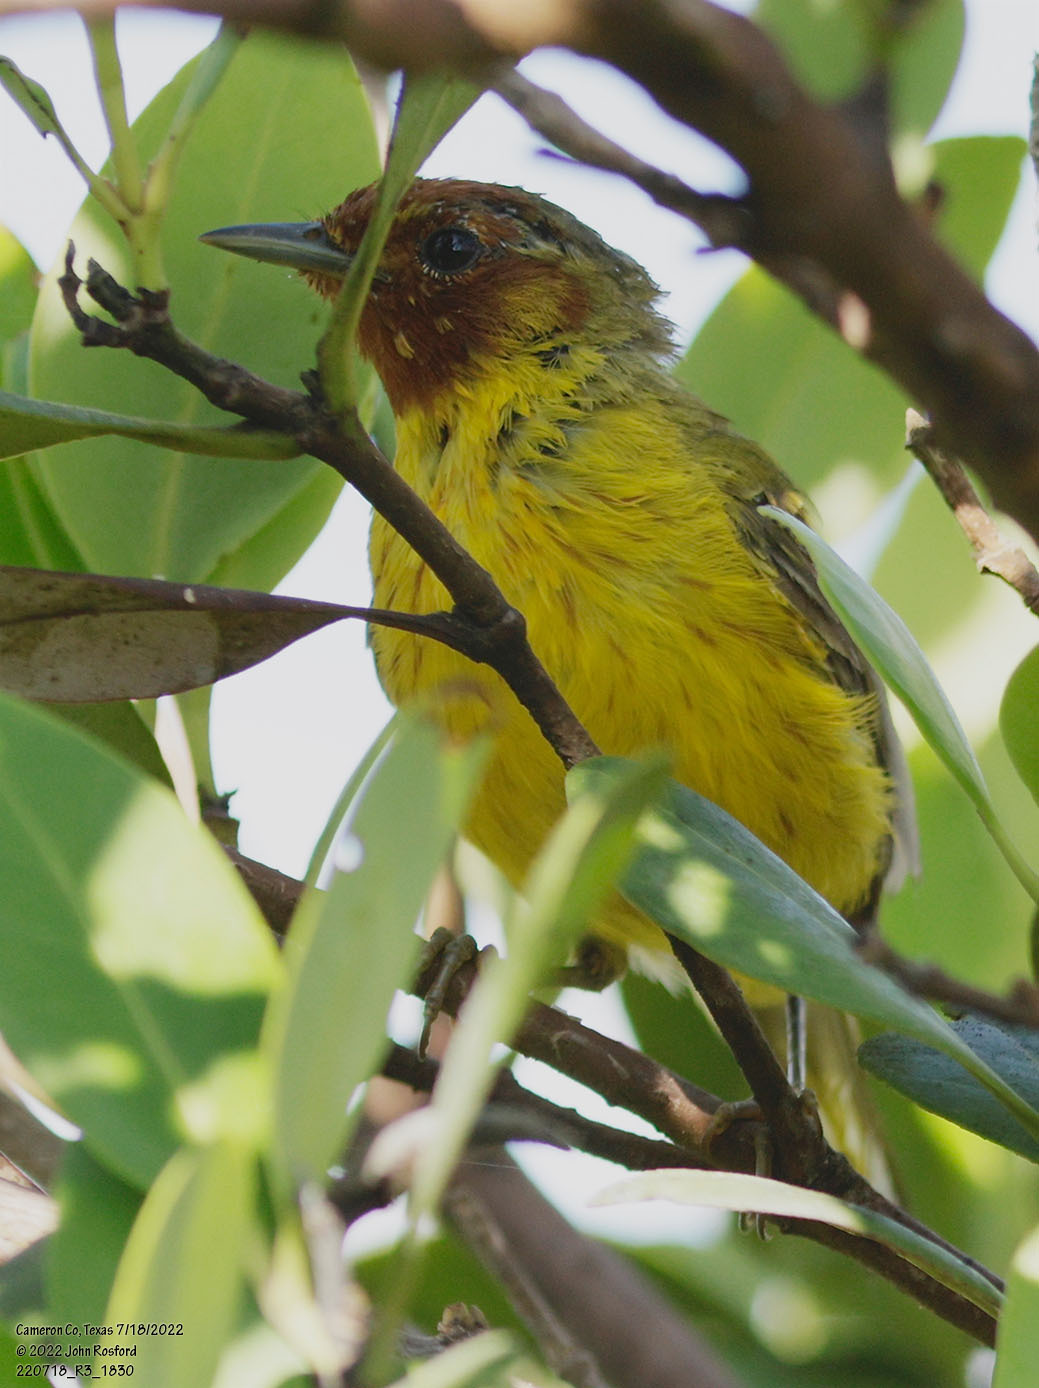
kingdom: Animalia
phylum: Chordata
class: Aves
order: Passeriformes
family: Parulidae
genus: Setophaga
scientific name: Setophaga petechia
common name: Yellow warbler
